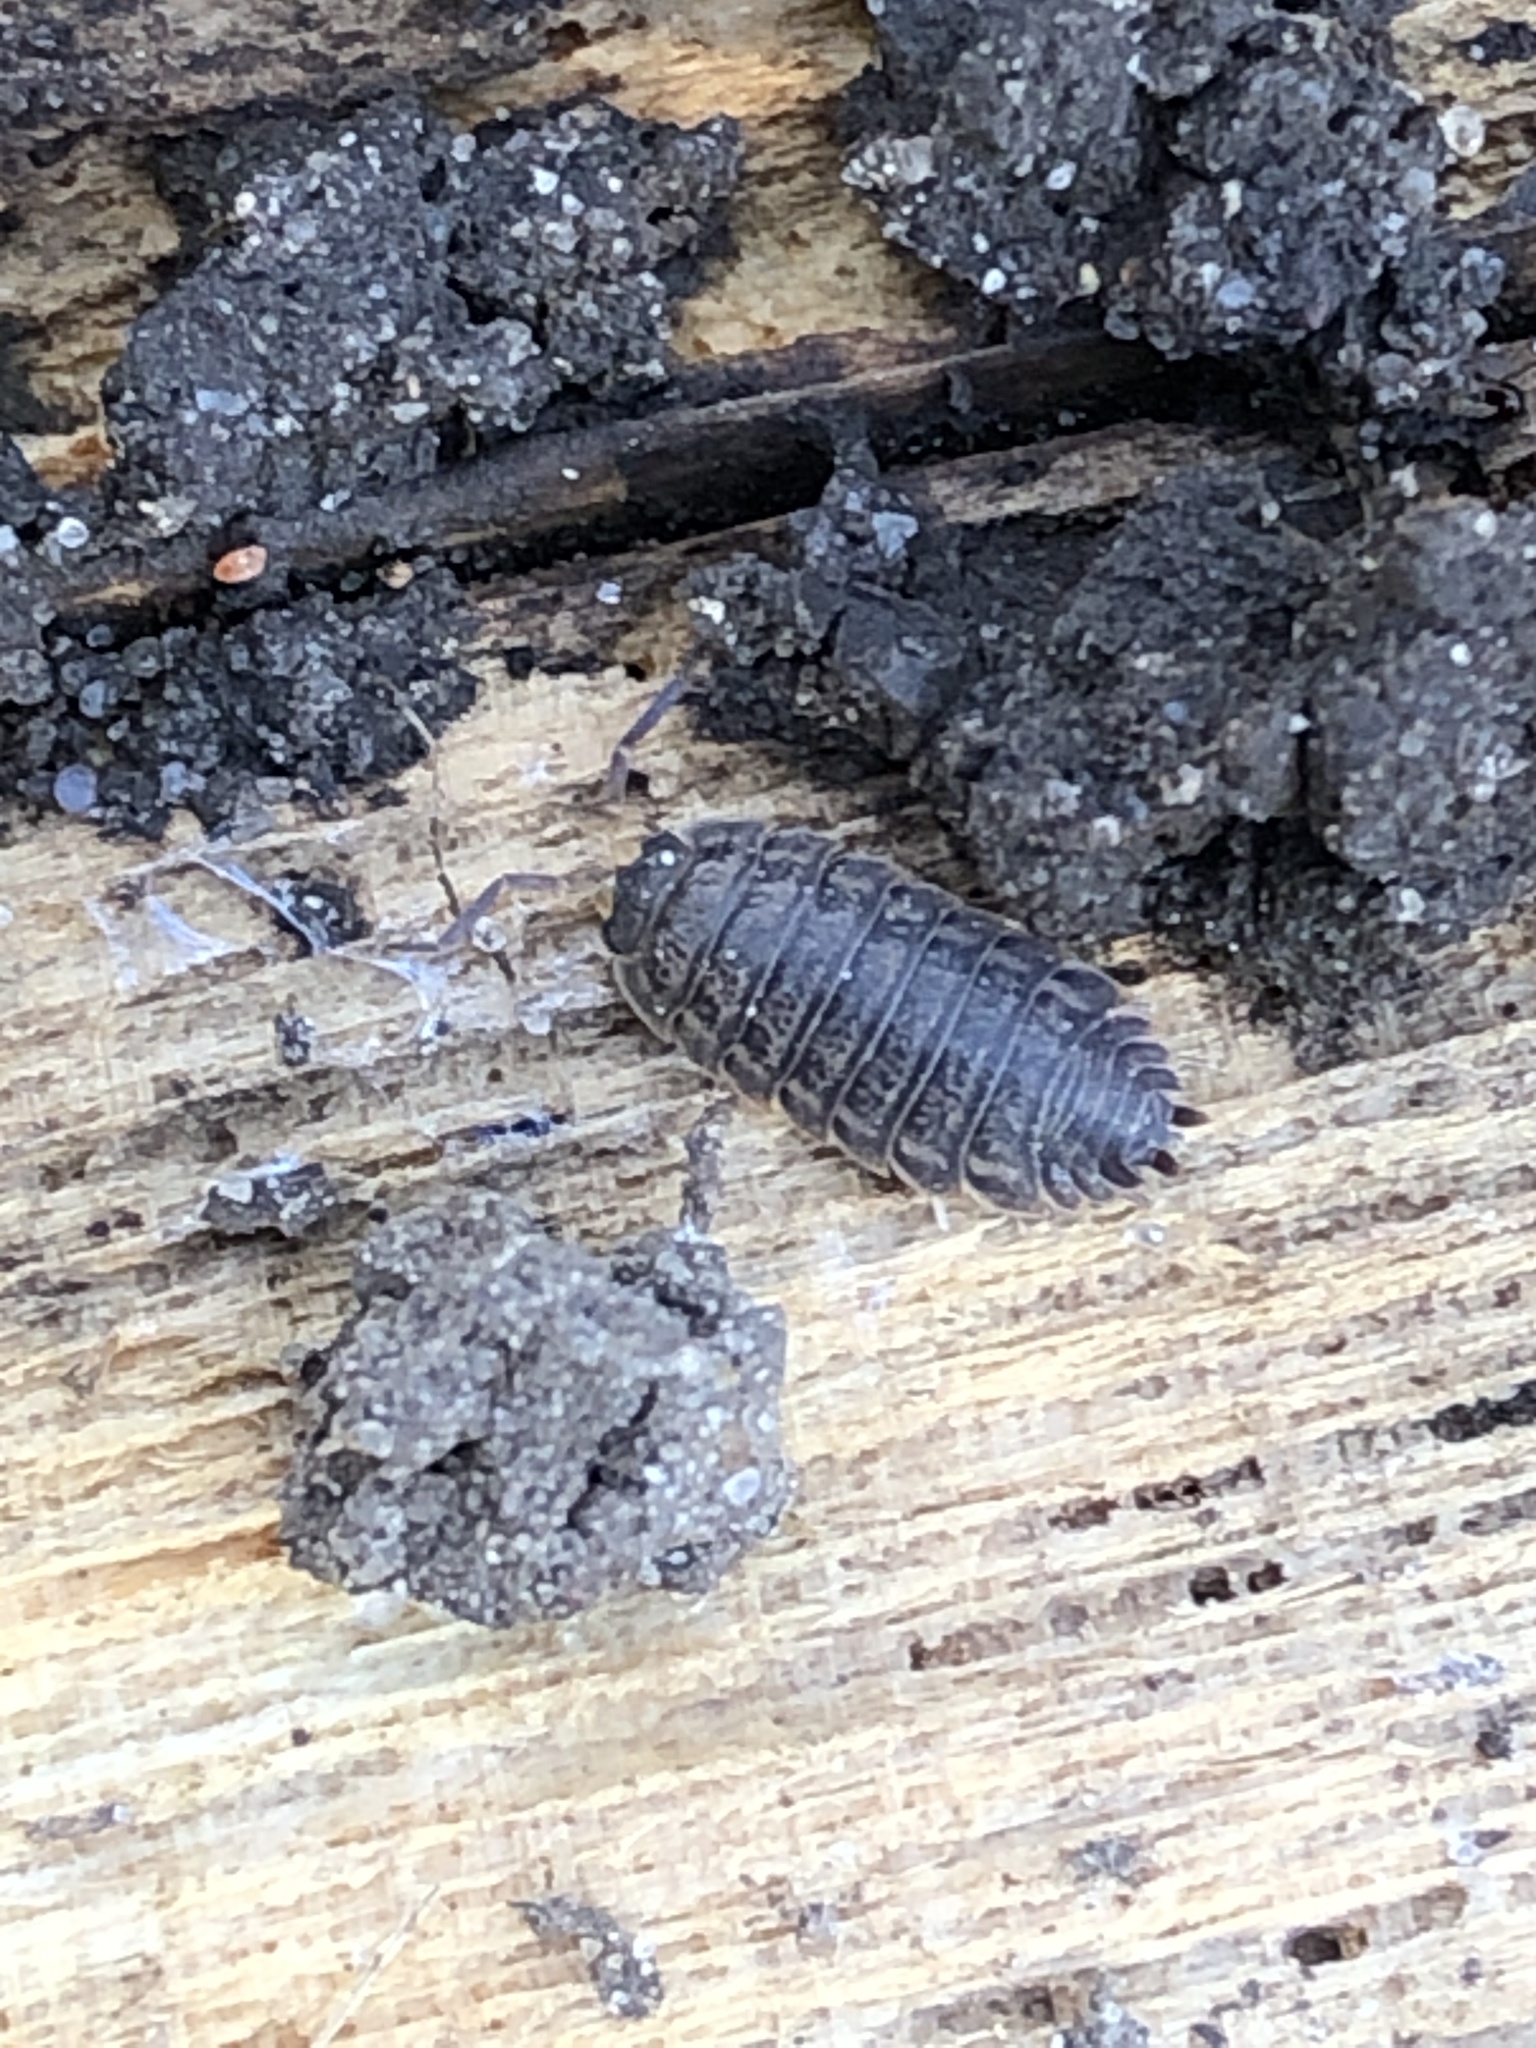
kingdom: Animalia
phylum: Arthropoda
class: Malacostraca
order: Isopoda
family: Trachelipodidae
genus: Trachelipus
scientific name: Trachelipus rathkii
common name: Isopod
